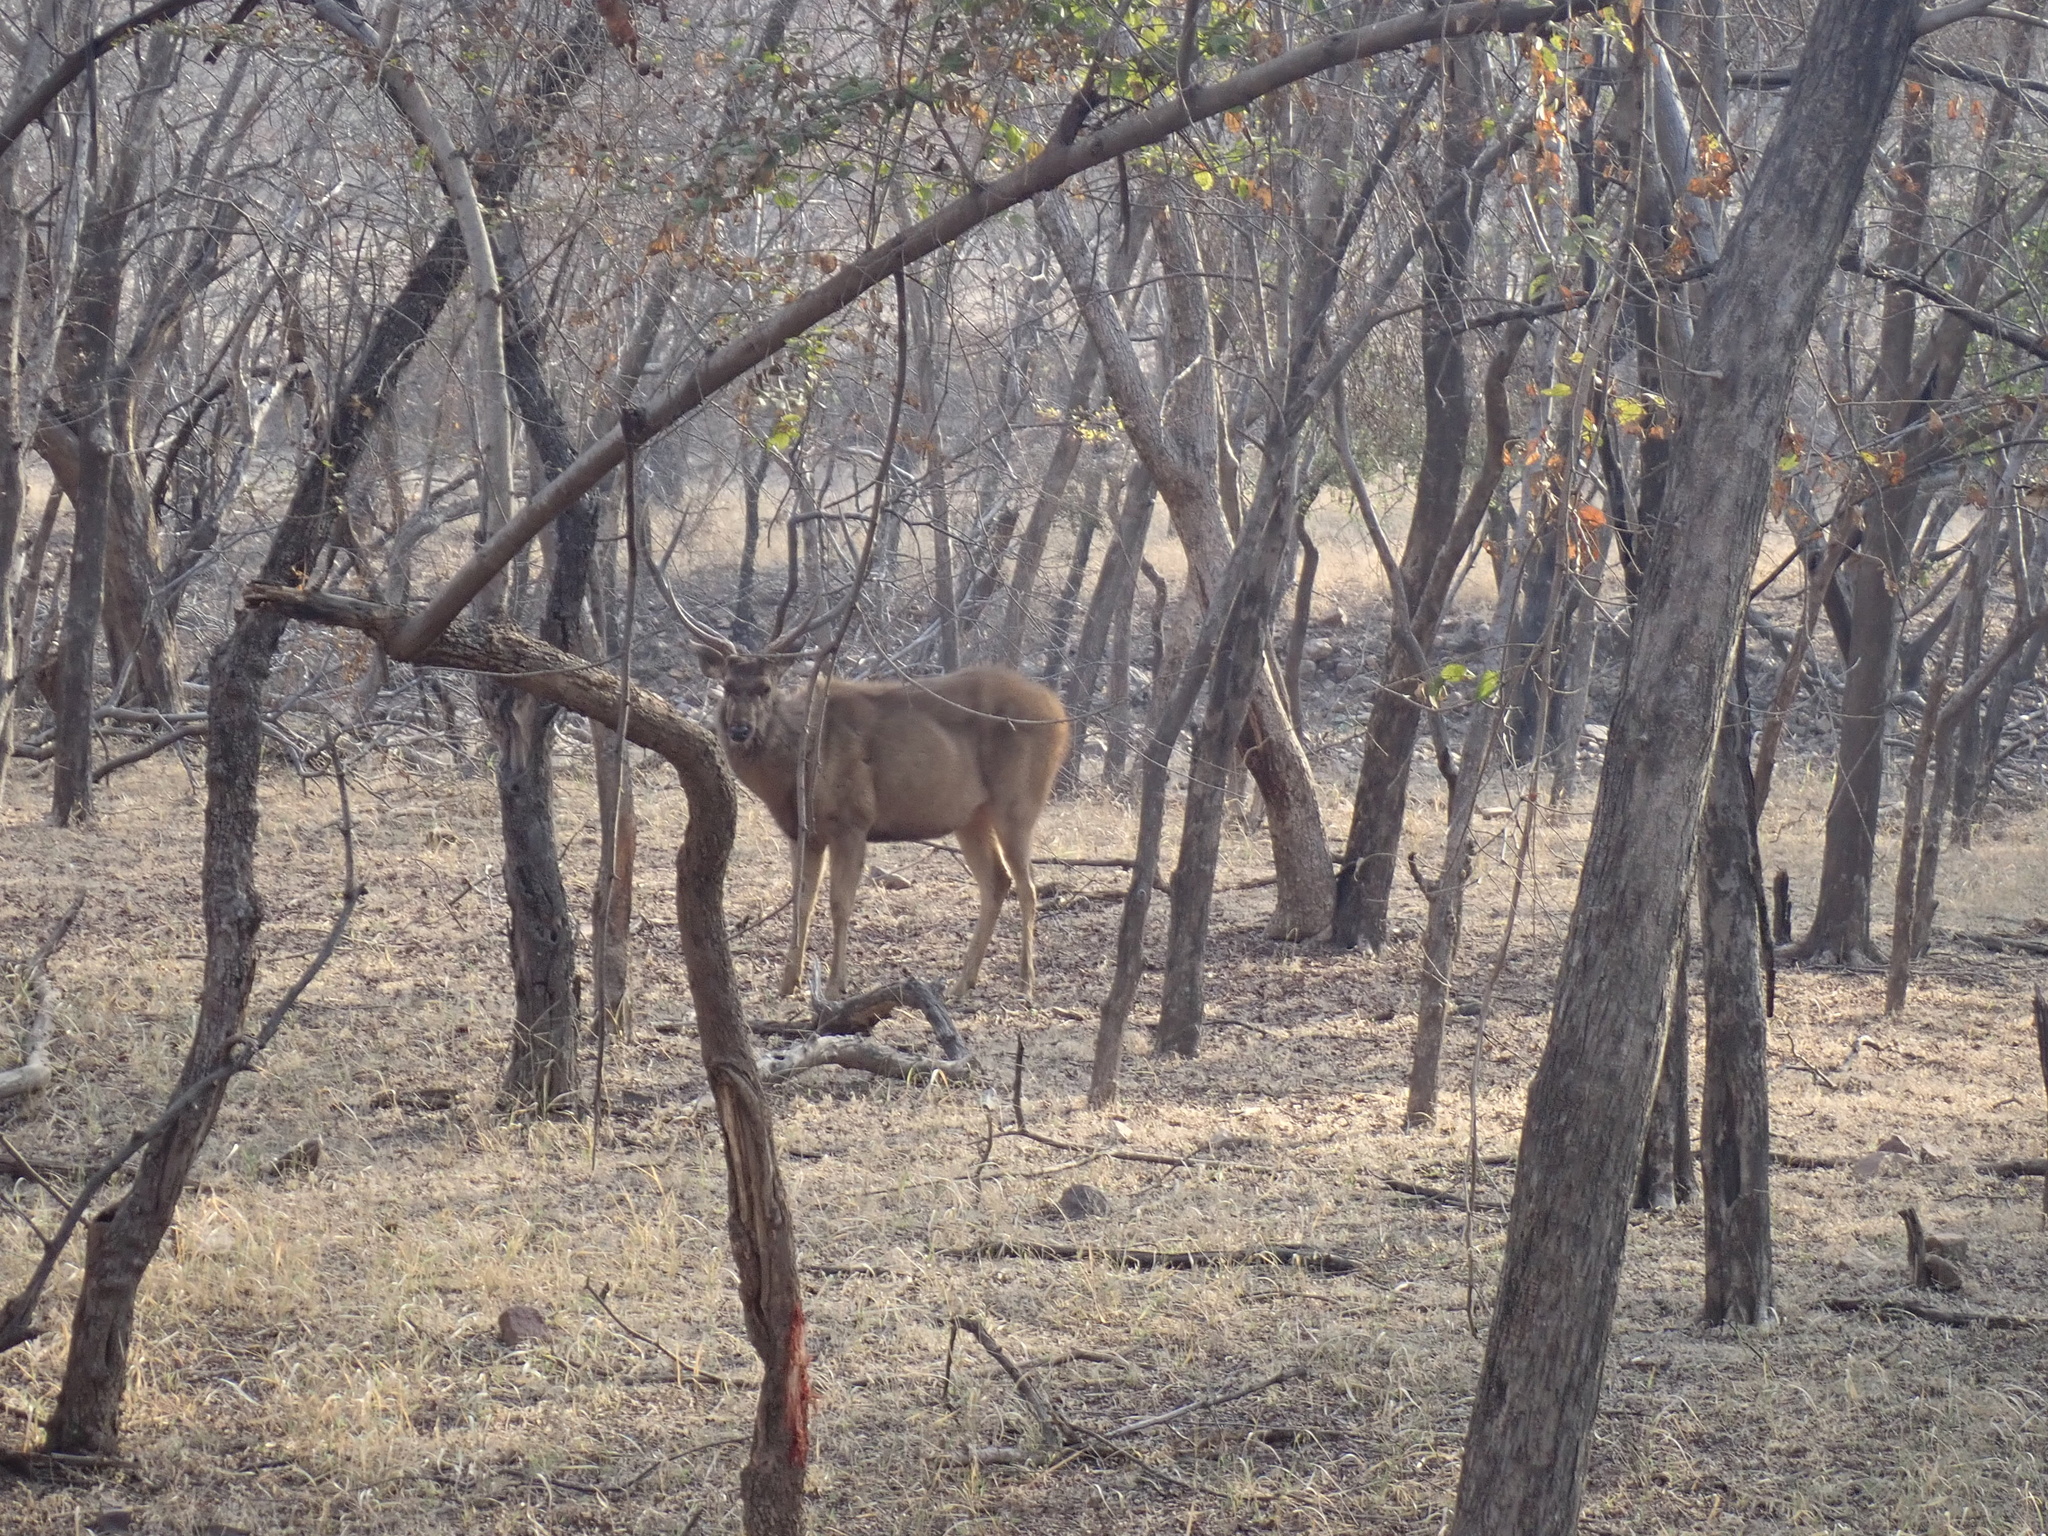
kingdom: Animalia
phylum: Chordata
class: Mammalia
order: Artiodactyla
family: Cervidae
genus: Rusa
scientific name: Rusa unicolor
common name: Sambar
